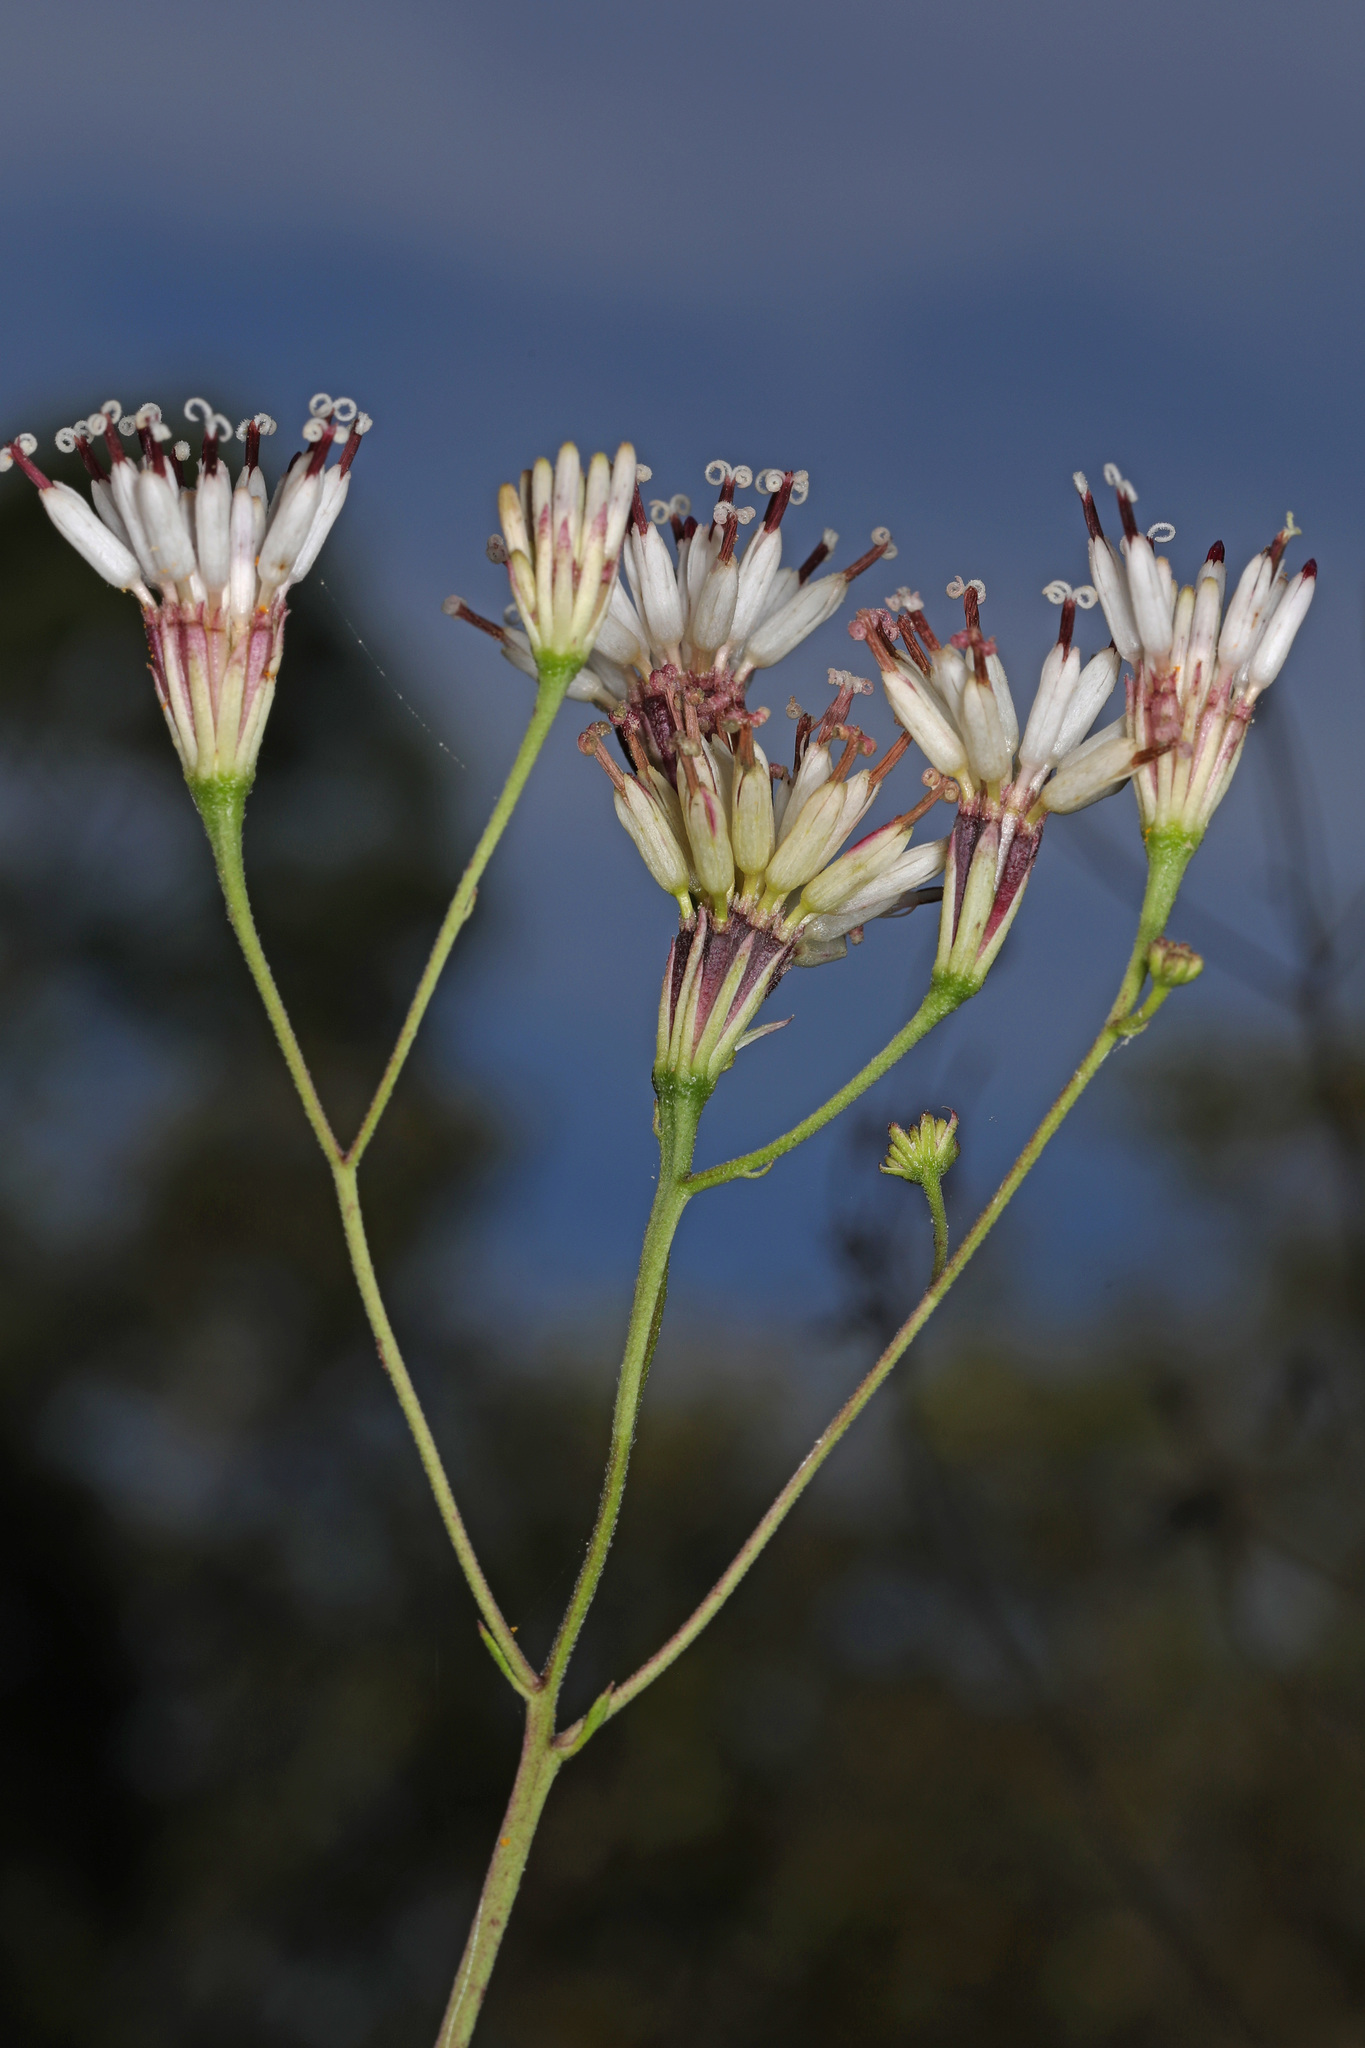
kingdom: Plantae
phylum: Tracheophyta
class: Magnoliopsida
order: Asterales
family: Asteraceae
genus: Palafoxia
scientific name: Palafoxia feayi
